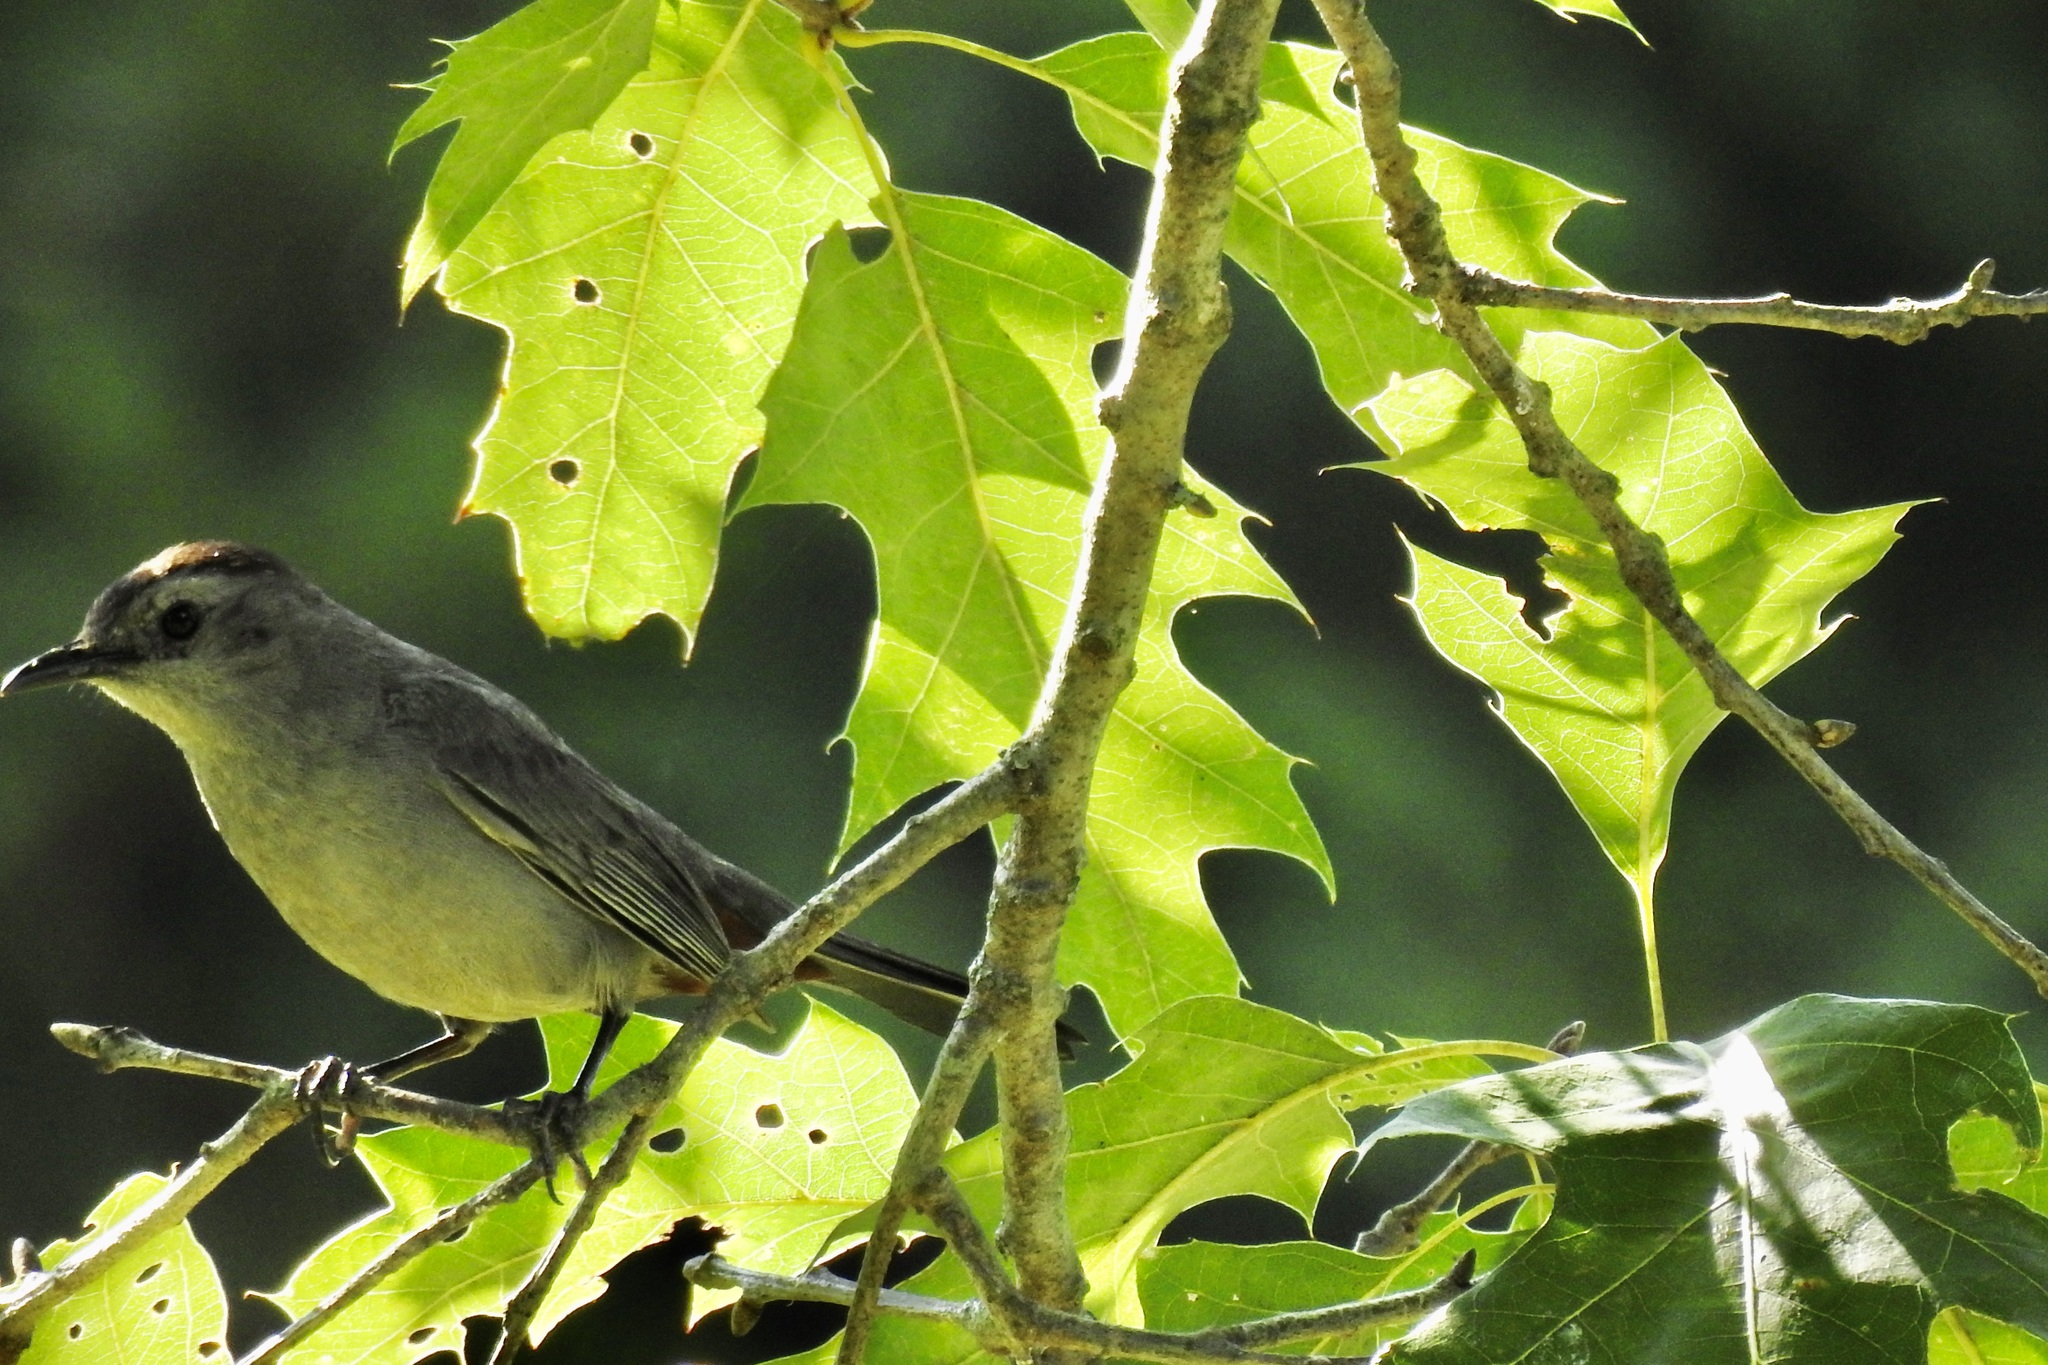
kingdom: Animalia
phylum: Chordata
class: Aves
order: Passeriformes
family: Mimidae
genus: Dumetella
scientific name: Dumetella carolinensis
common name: Gray catbird
